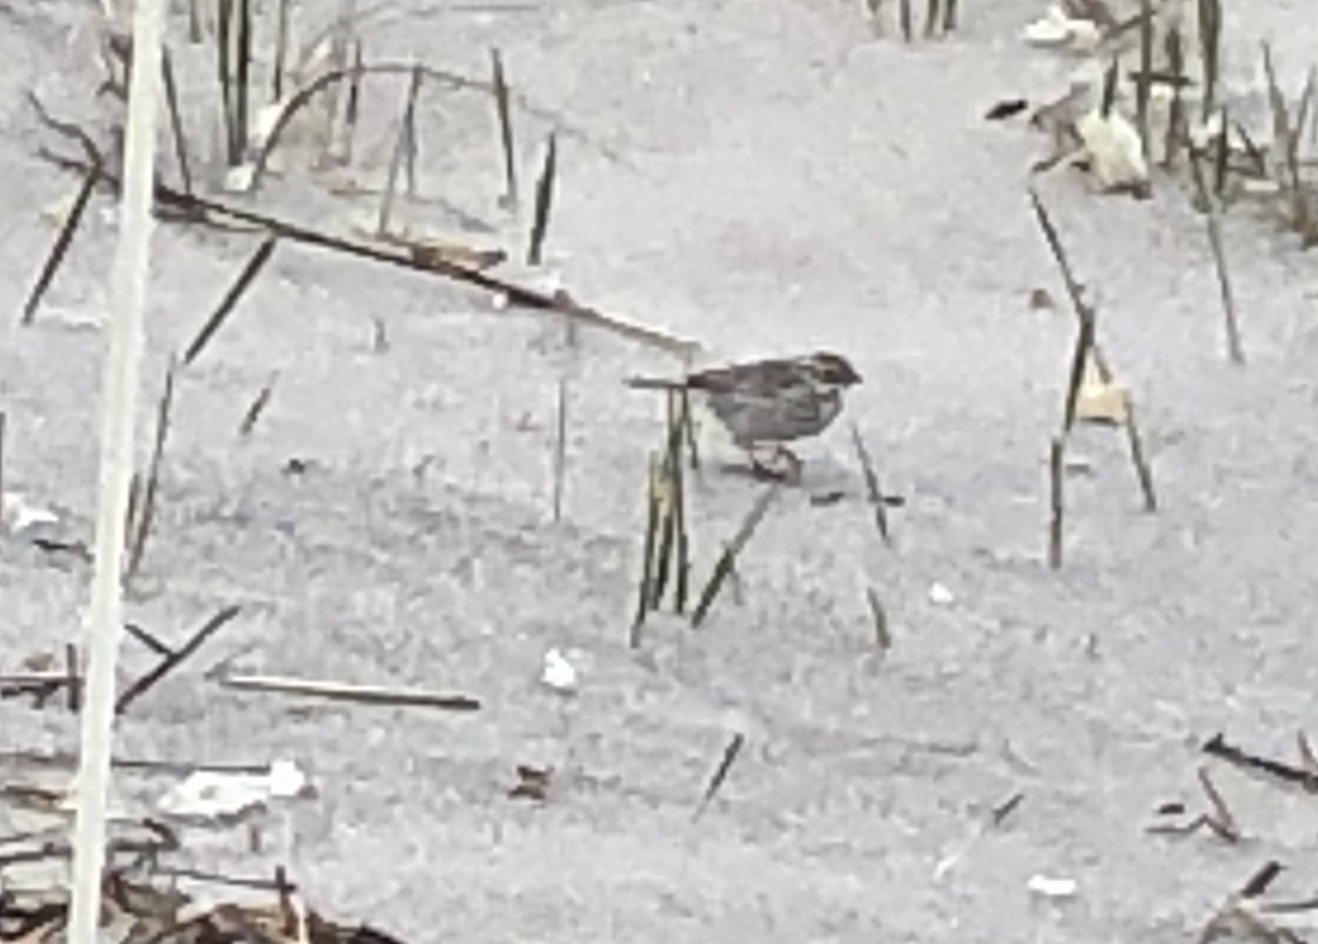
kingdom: Animalia
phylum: Chordata
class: Aves
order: Passeriformes
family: Passerellidae
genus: Zonotrichia
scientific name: Zonotrichia albicollis
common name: White-throated sparrow
